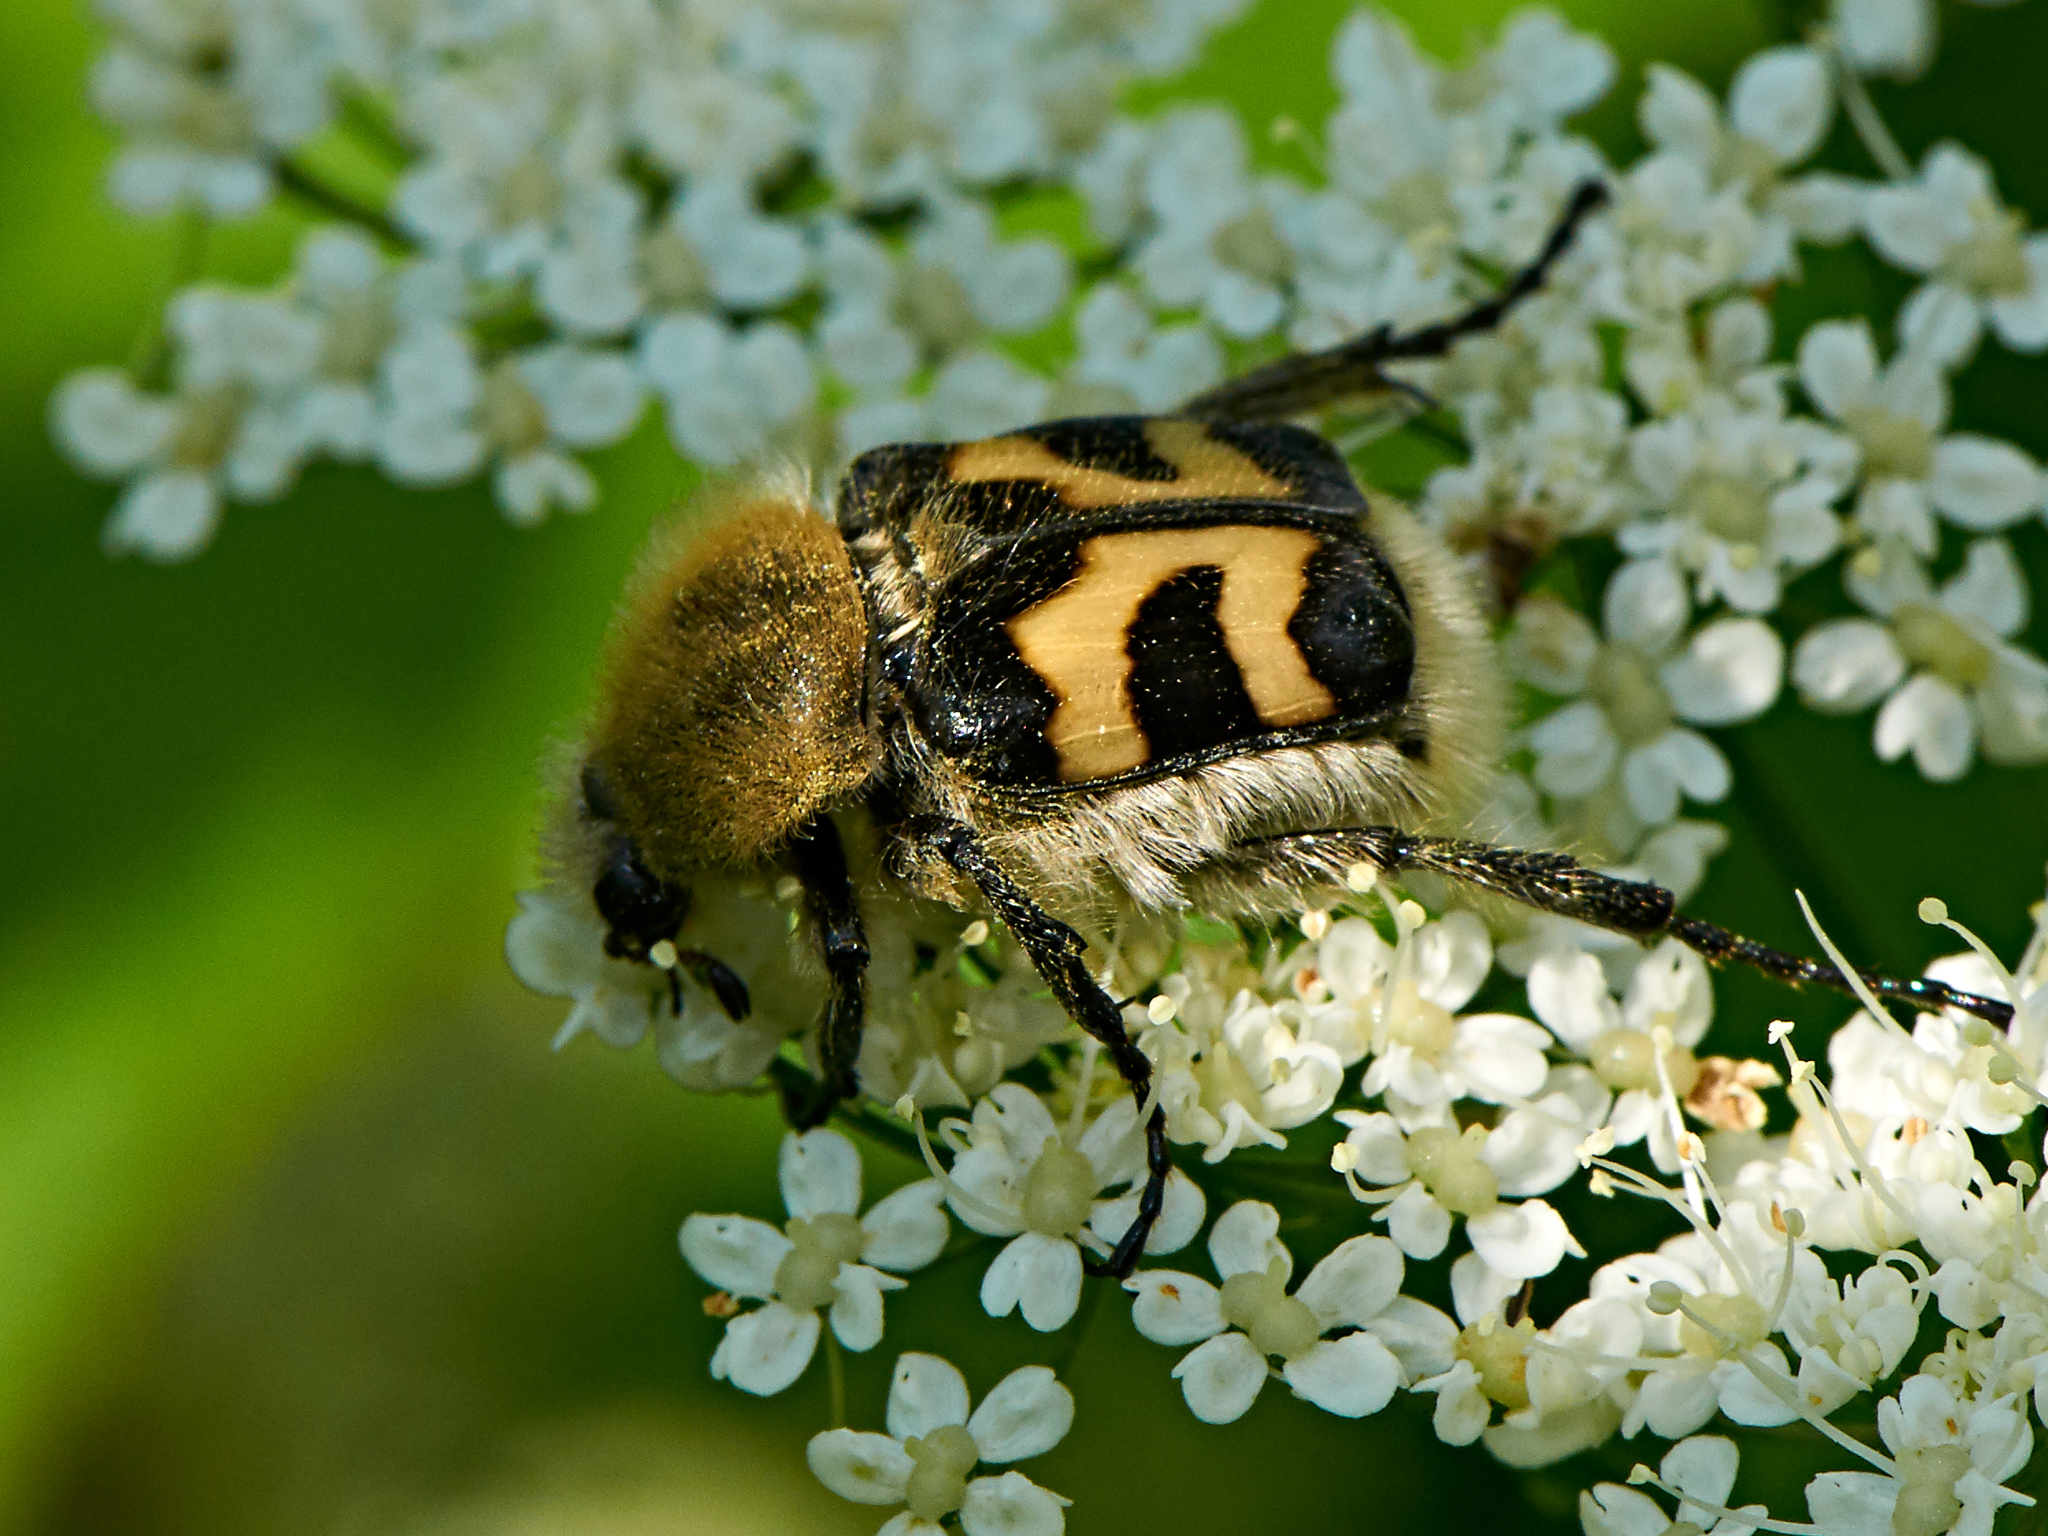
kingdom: Animalia
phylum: Arthropoda
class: Insecta
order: Coleoptera
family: Scarabaeidae
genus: Trichius
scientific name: Trichius fasciatus
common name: Bee beetle
